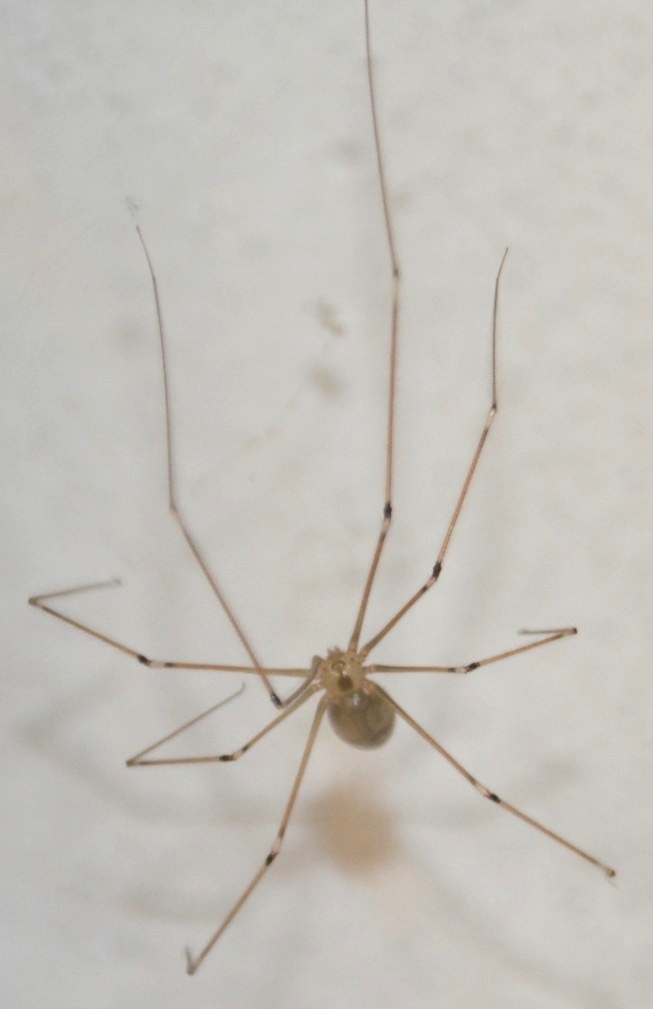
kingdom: Animalia
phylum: Arthropoda
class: Arachnida
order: Araneae
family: Pholcidae
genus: Pholcus
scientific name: Pholcus phalangioides
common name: Longbodied cellar spider
